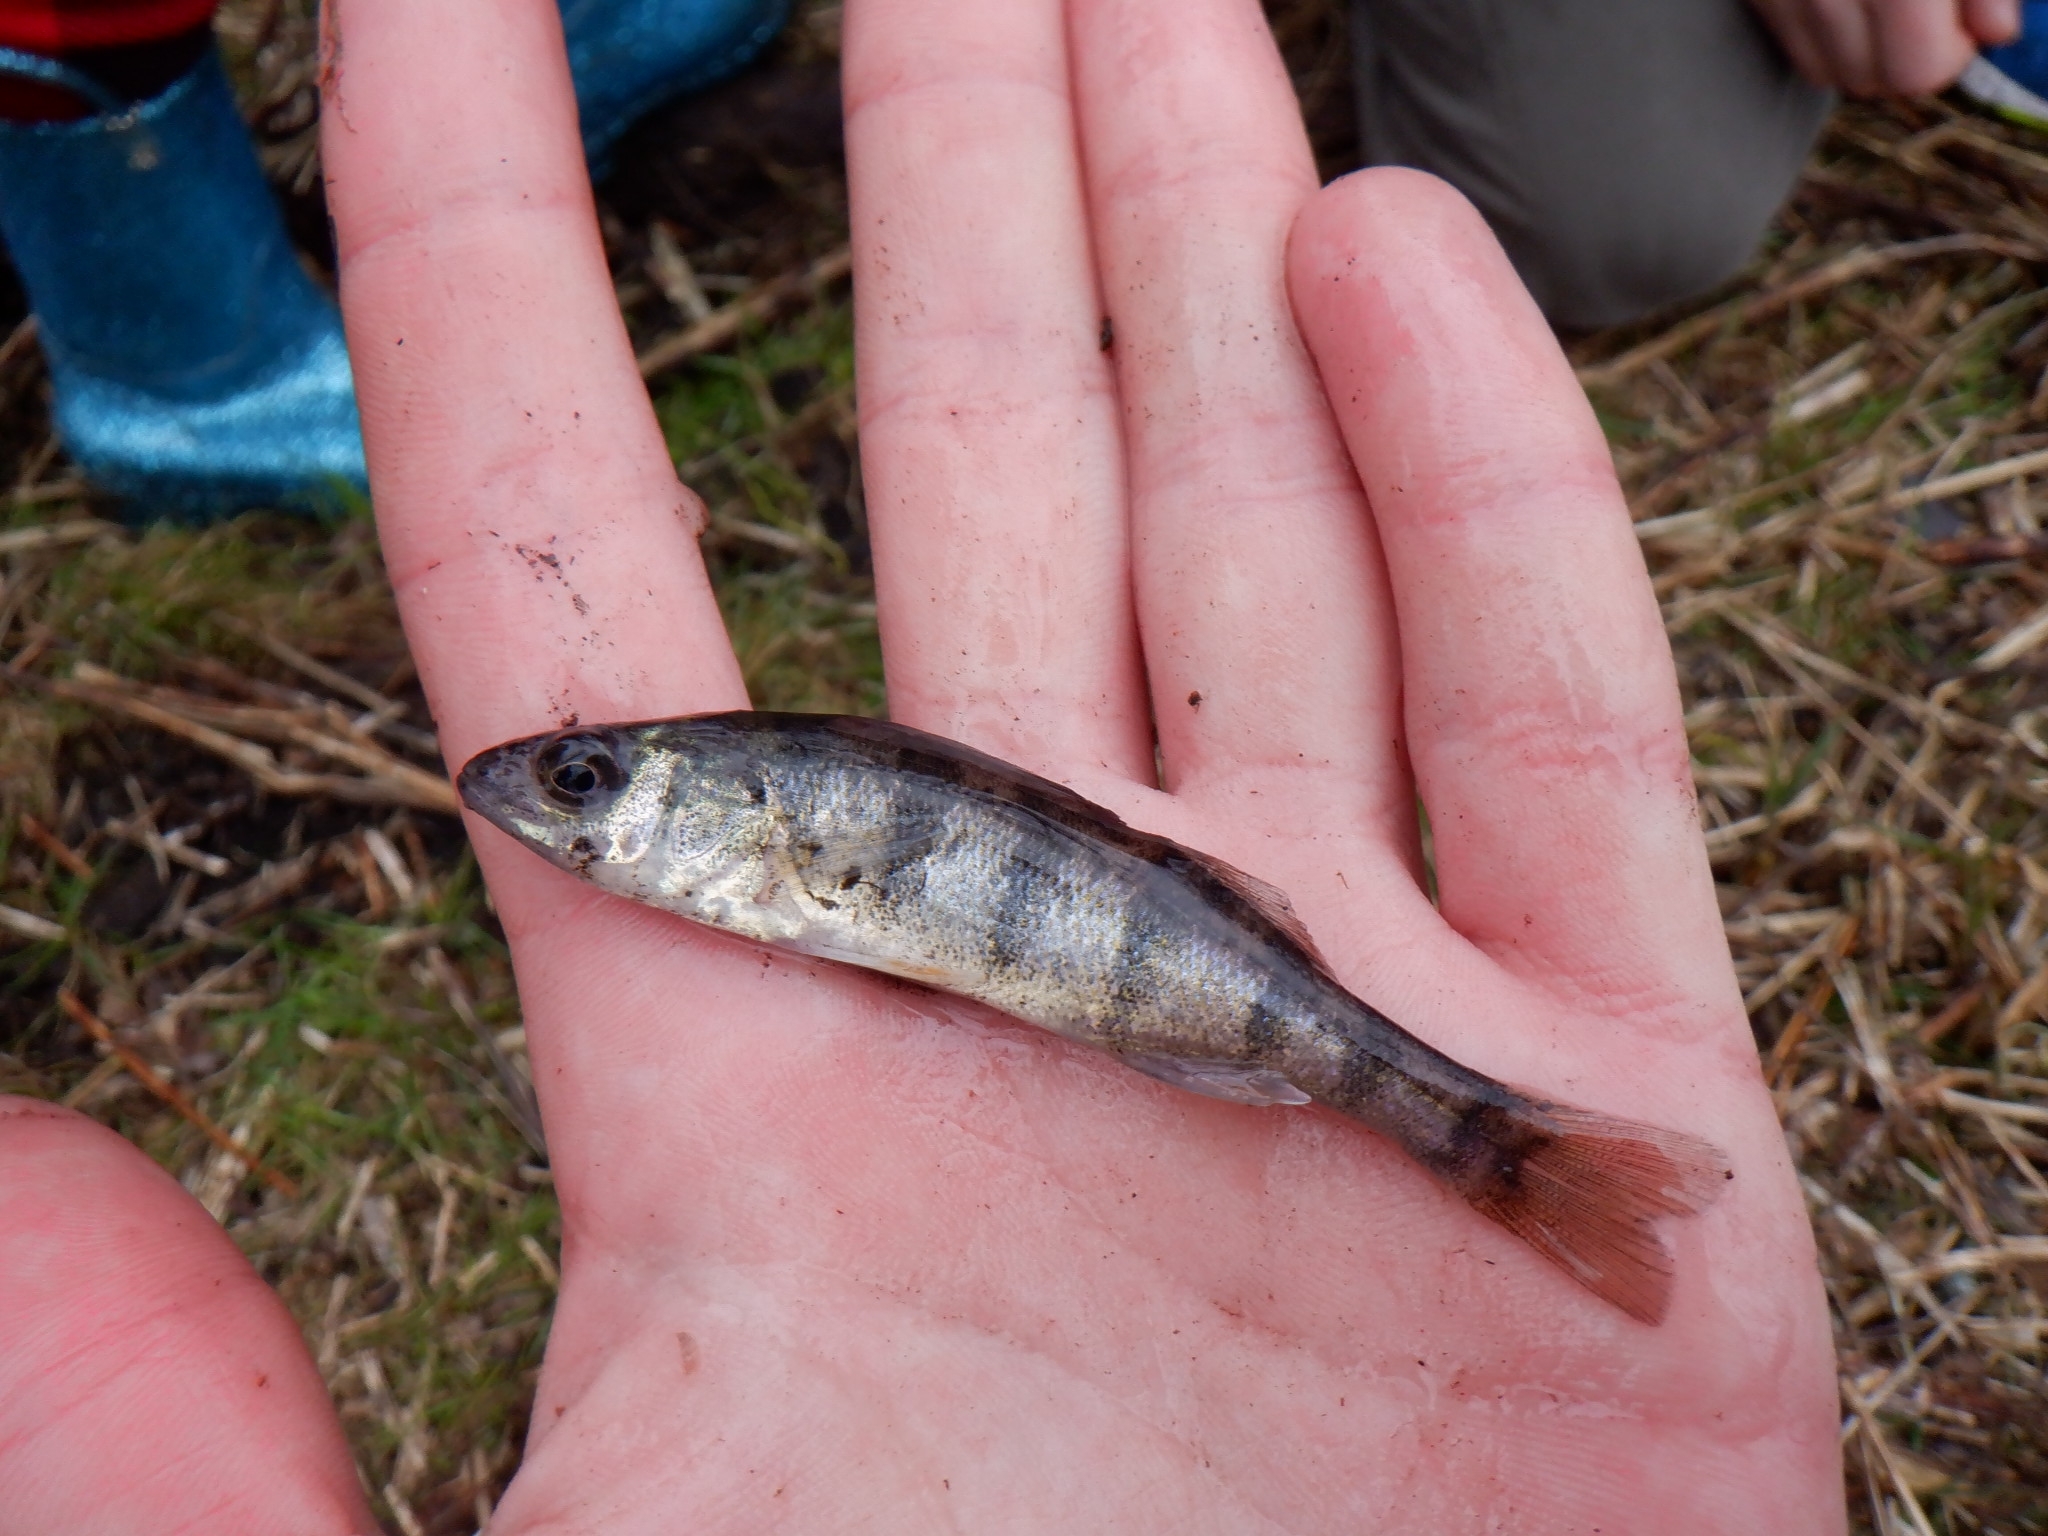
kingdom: Animalia
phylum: Chordata
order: Perciformes
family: Percidae
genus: Perca
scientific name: Perca flavescens
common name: Yellow perch
